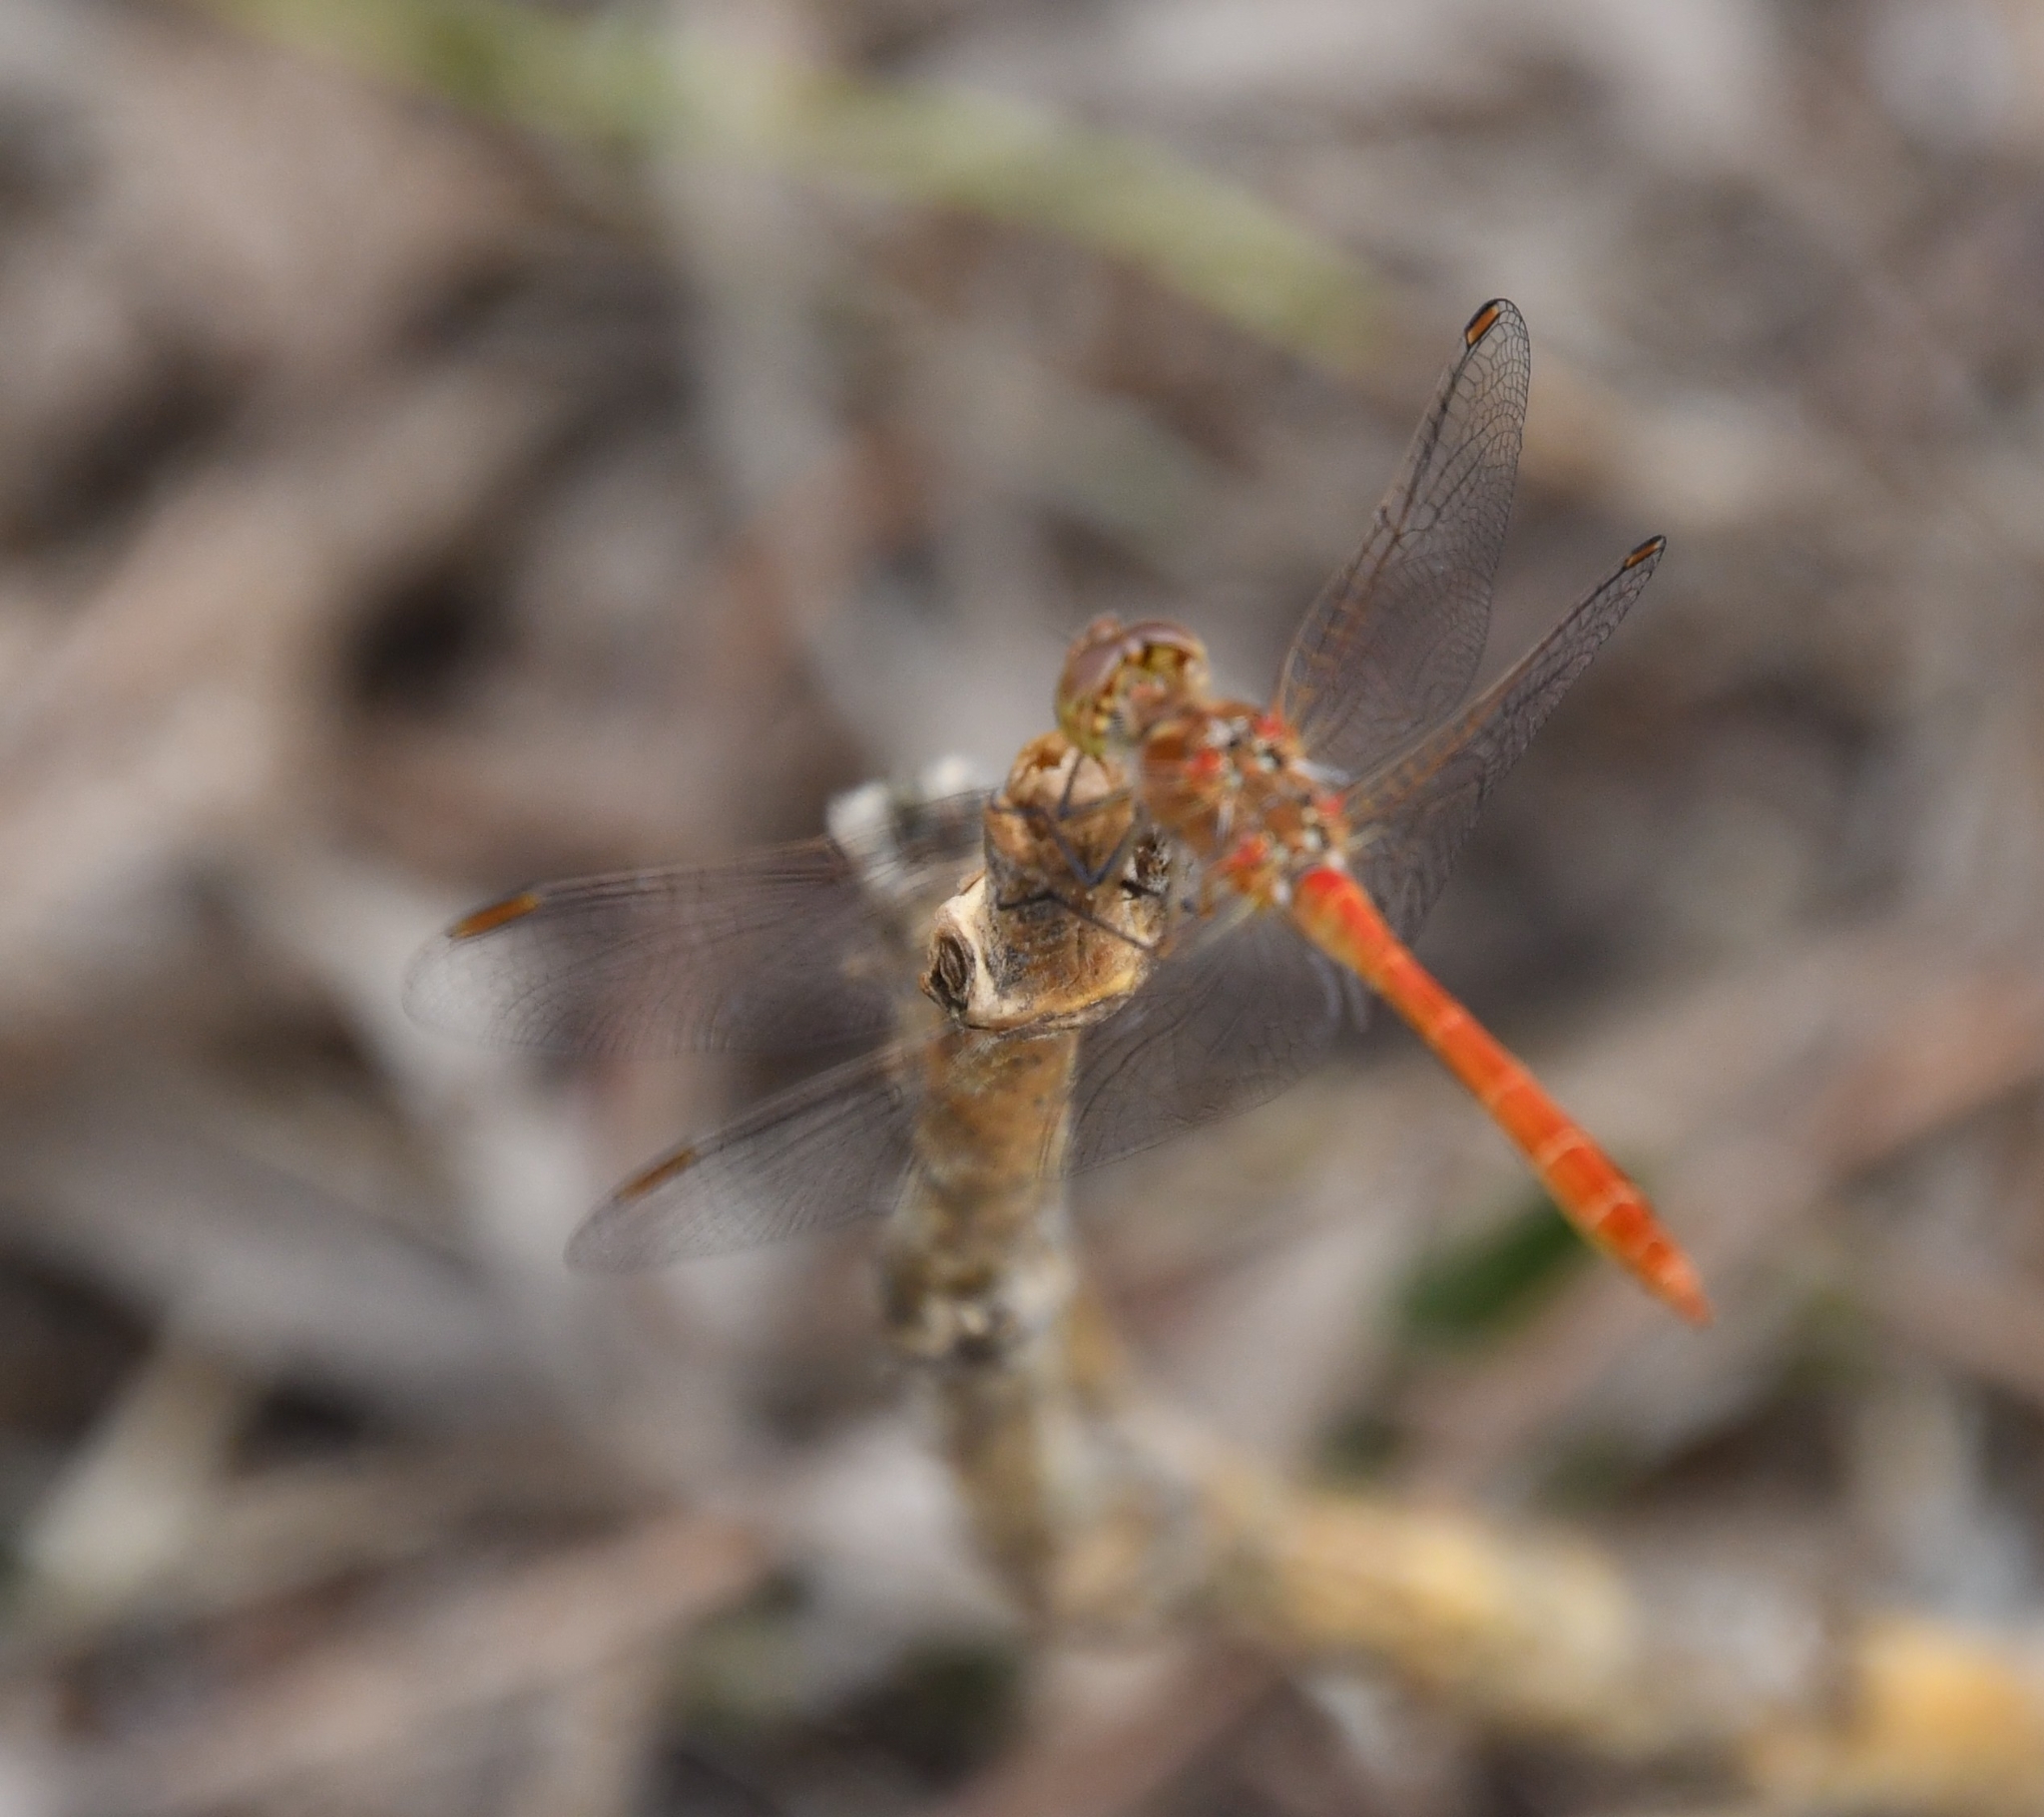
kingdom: Animalia
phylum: Arthropoda
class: Insecta
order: Odonata
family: Libellulidae
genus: Sympetrum
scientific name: Sympetrum meridionale
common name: Southern darter
